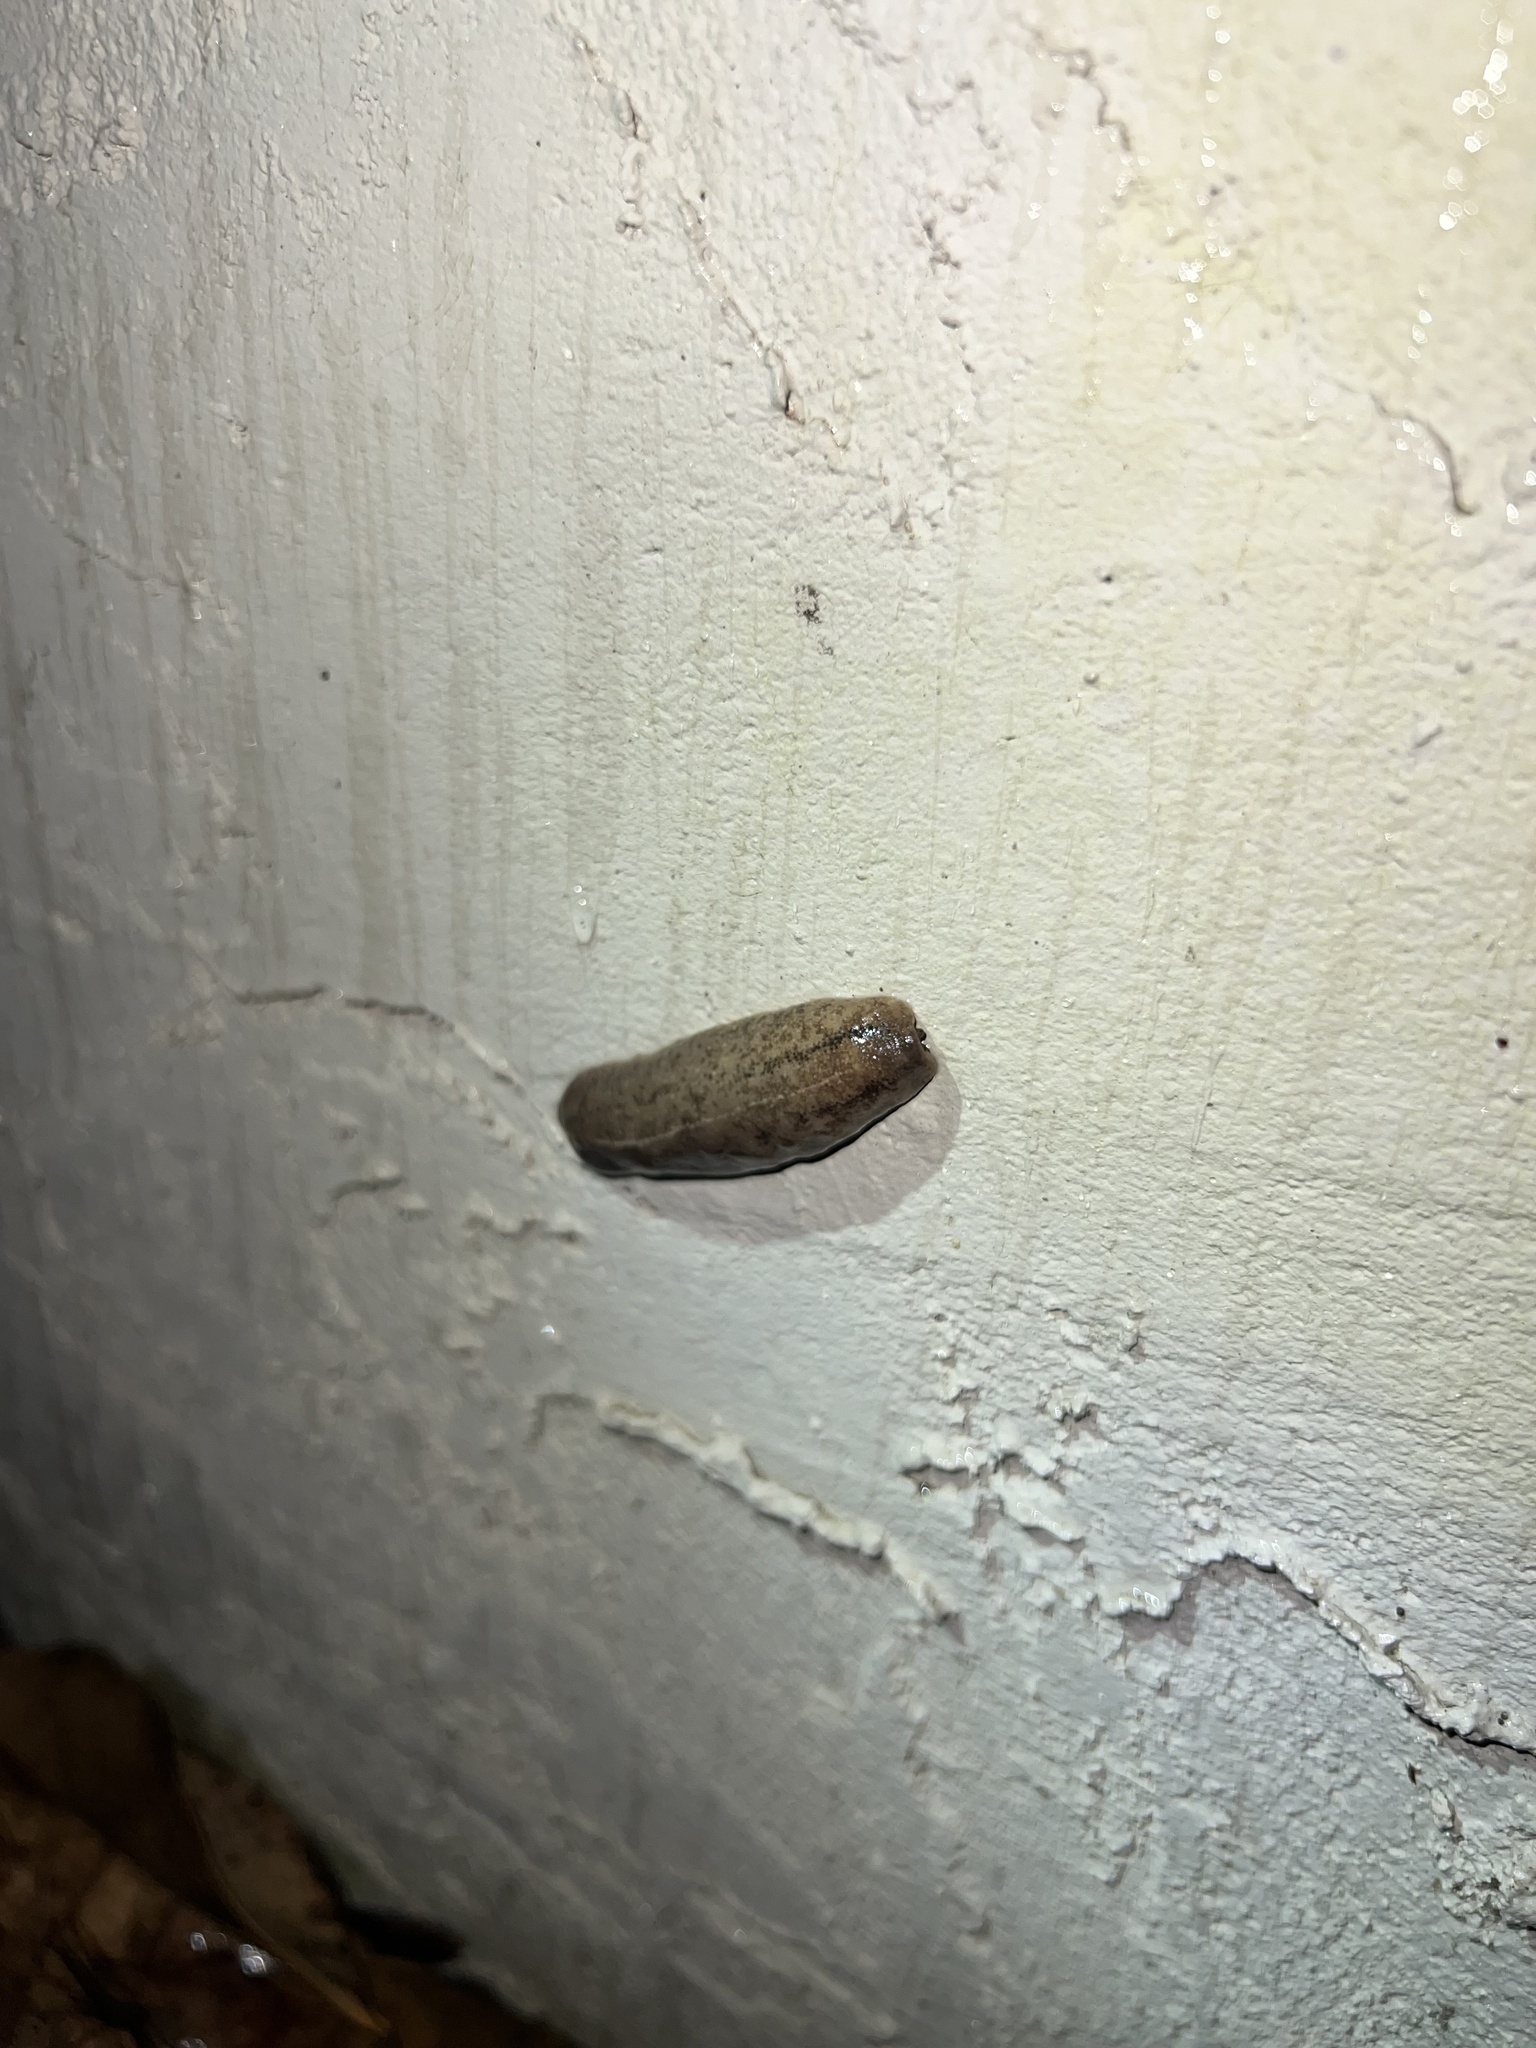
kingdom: Animalia
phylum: Mollusca
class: Gastropoda
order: Systellommatophora
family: Veronicellidae
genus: Sarasinula
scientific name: Sarasinula plebeia
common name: Caribbean leatherleaf
